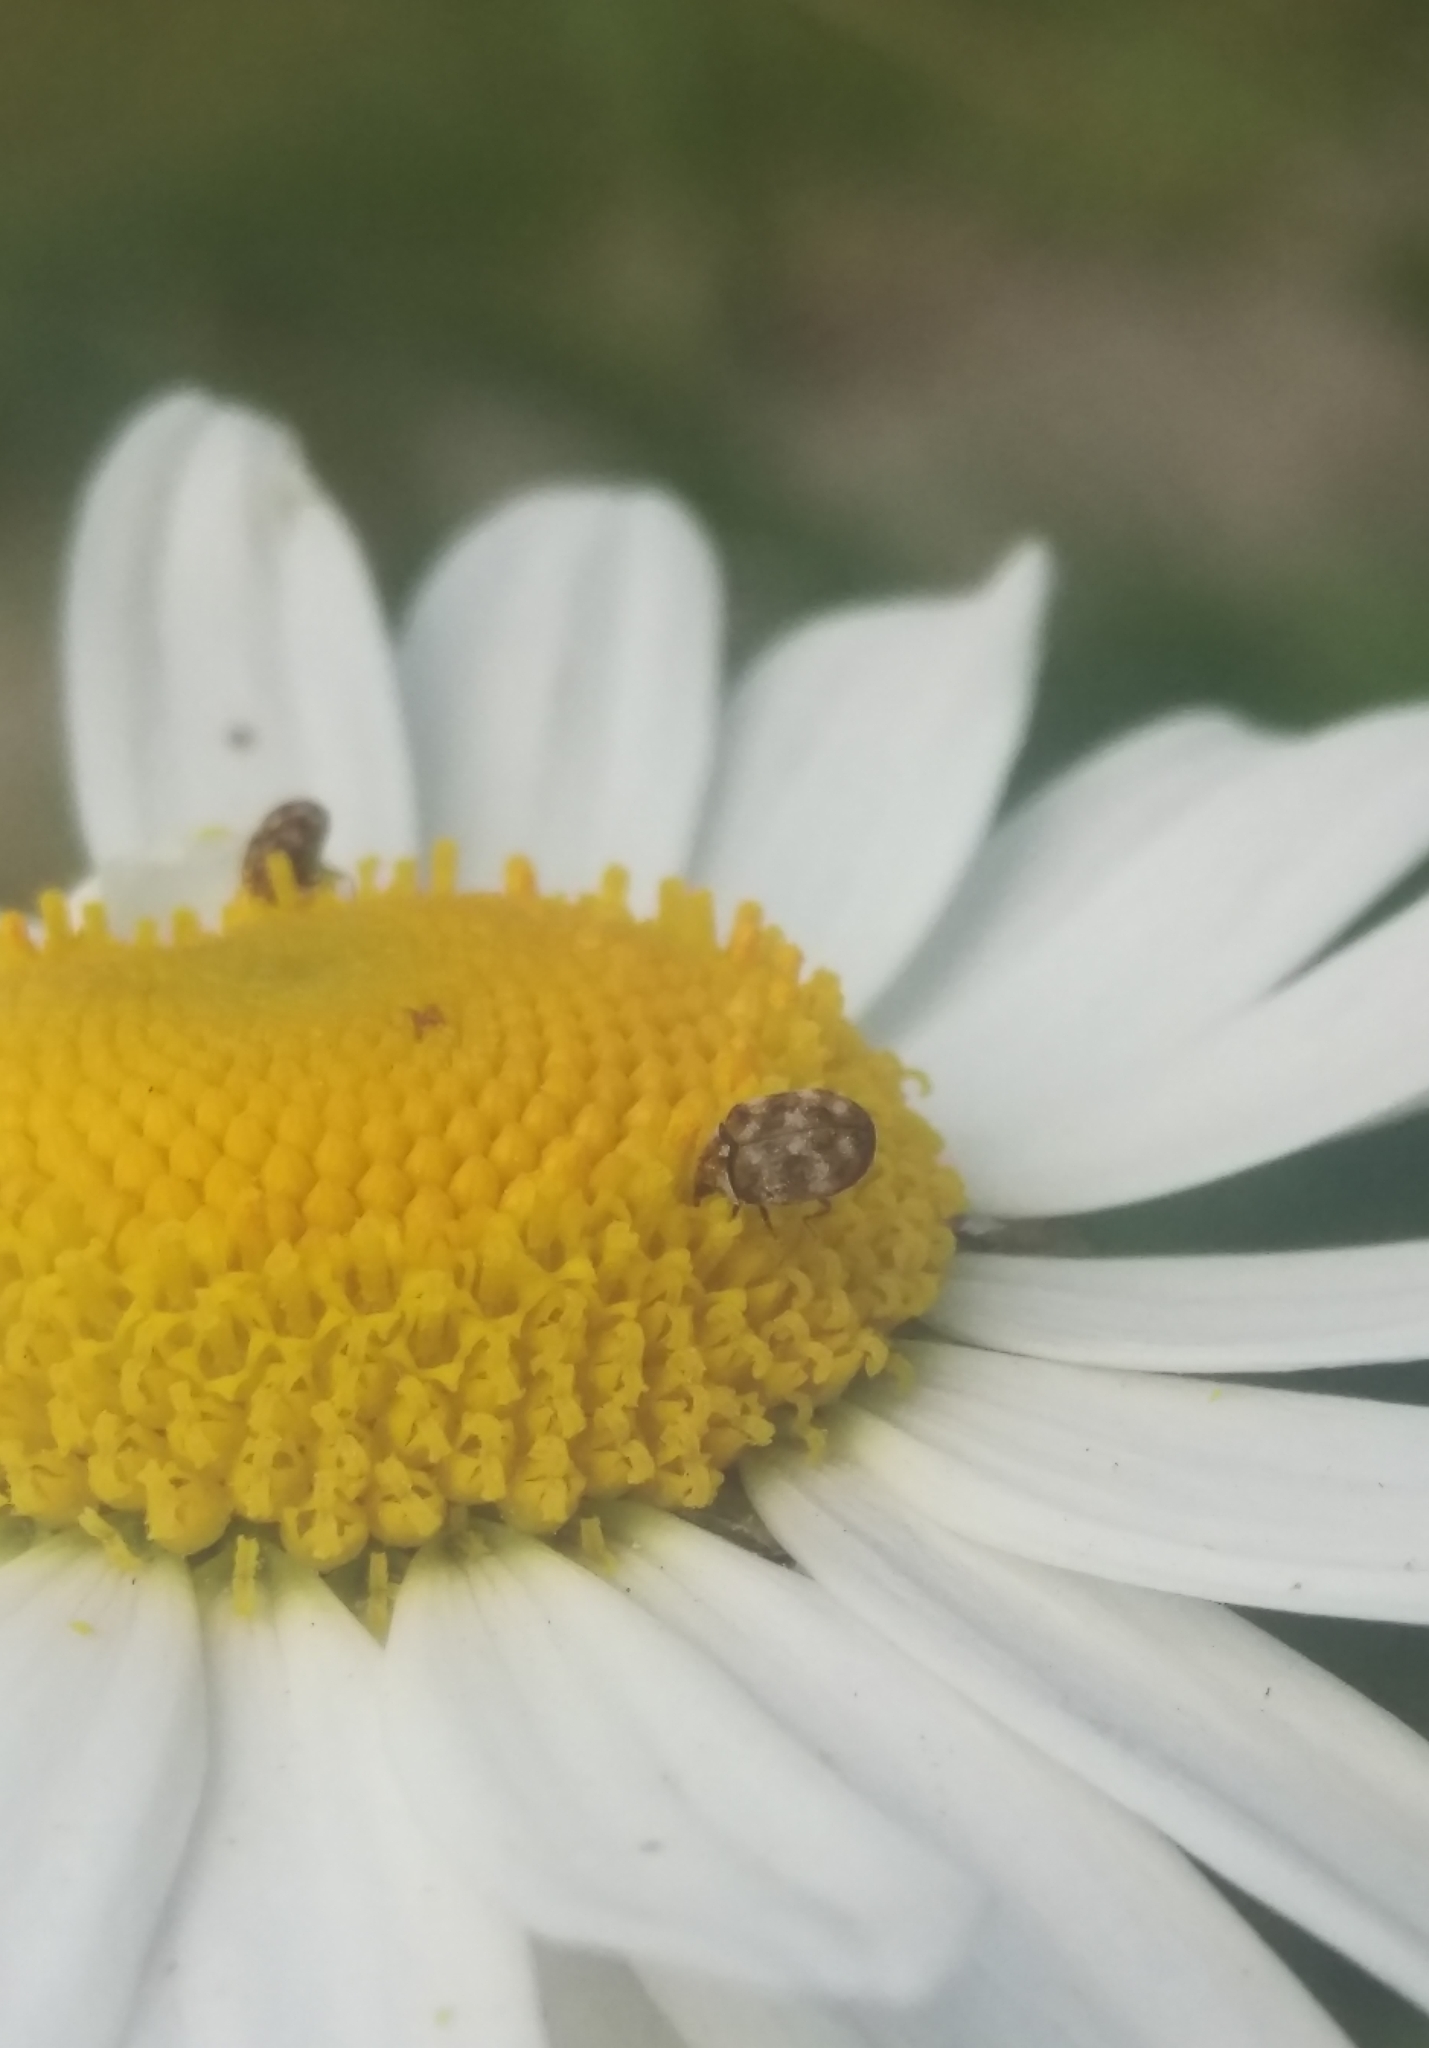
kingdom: Animalia
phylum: Arthropoda
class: Insecta
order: Coleoptera
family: Dermestidae
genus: Anthrenus
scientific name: Anthrenus verbasci
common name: Varied carpet beetle
